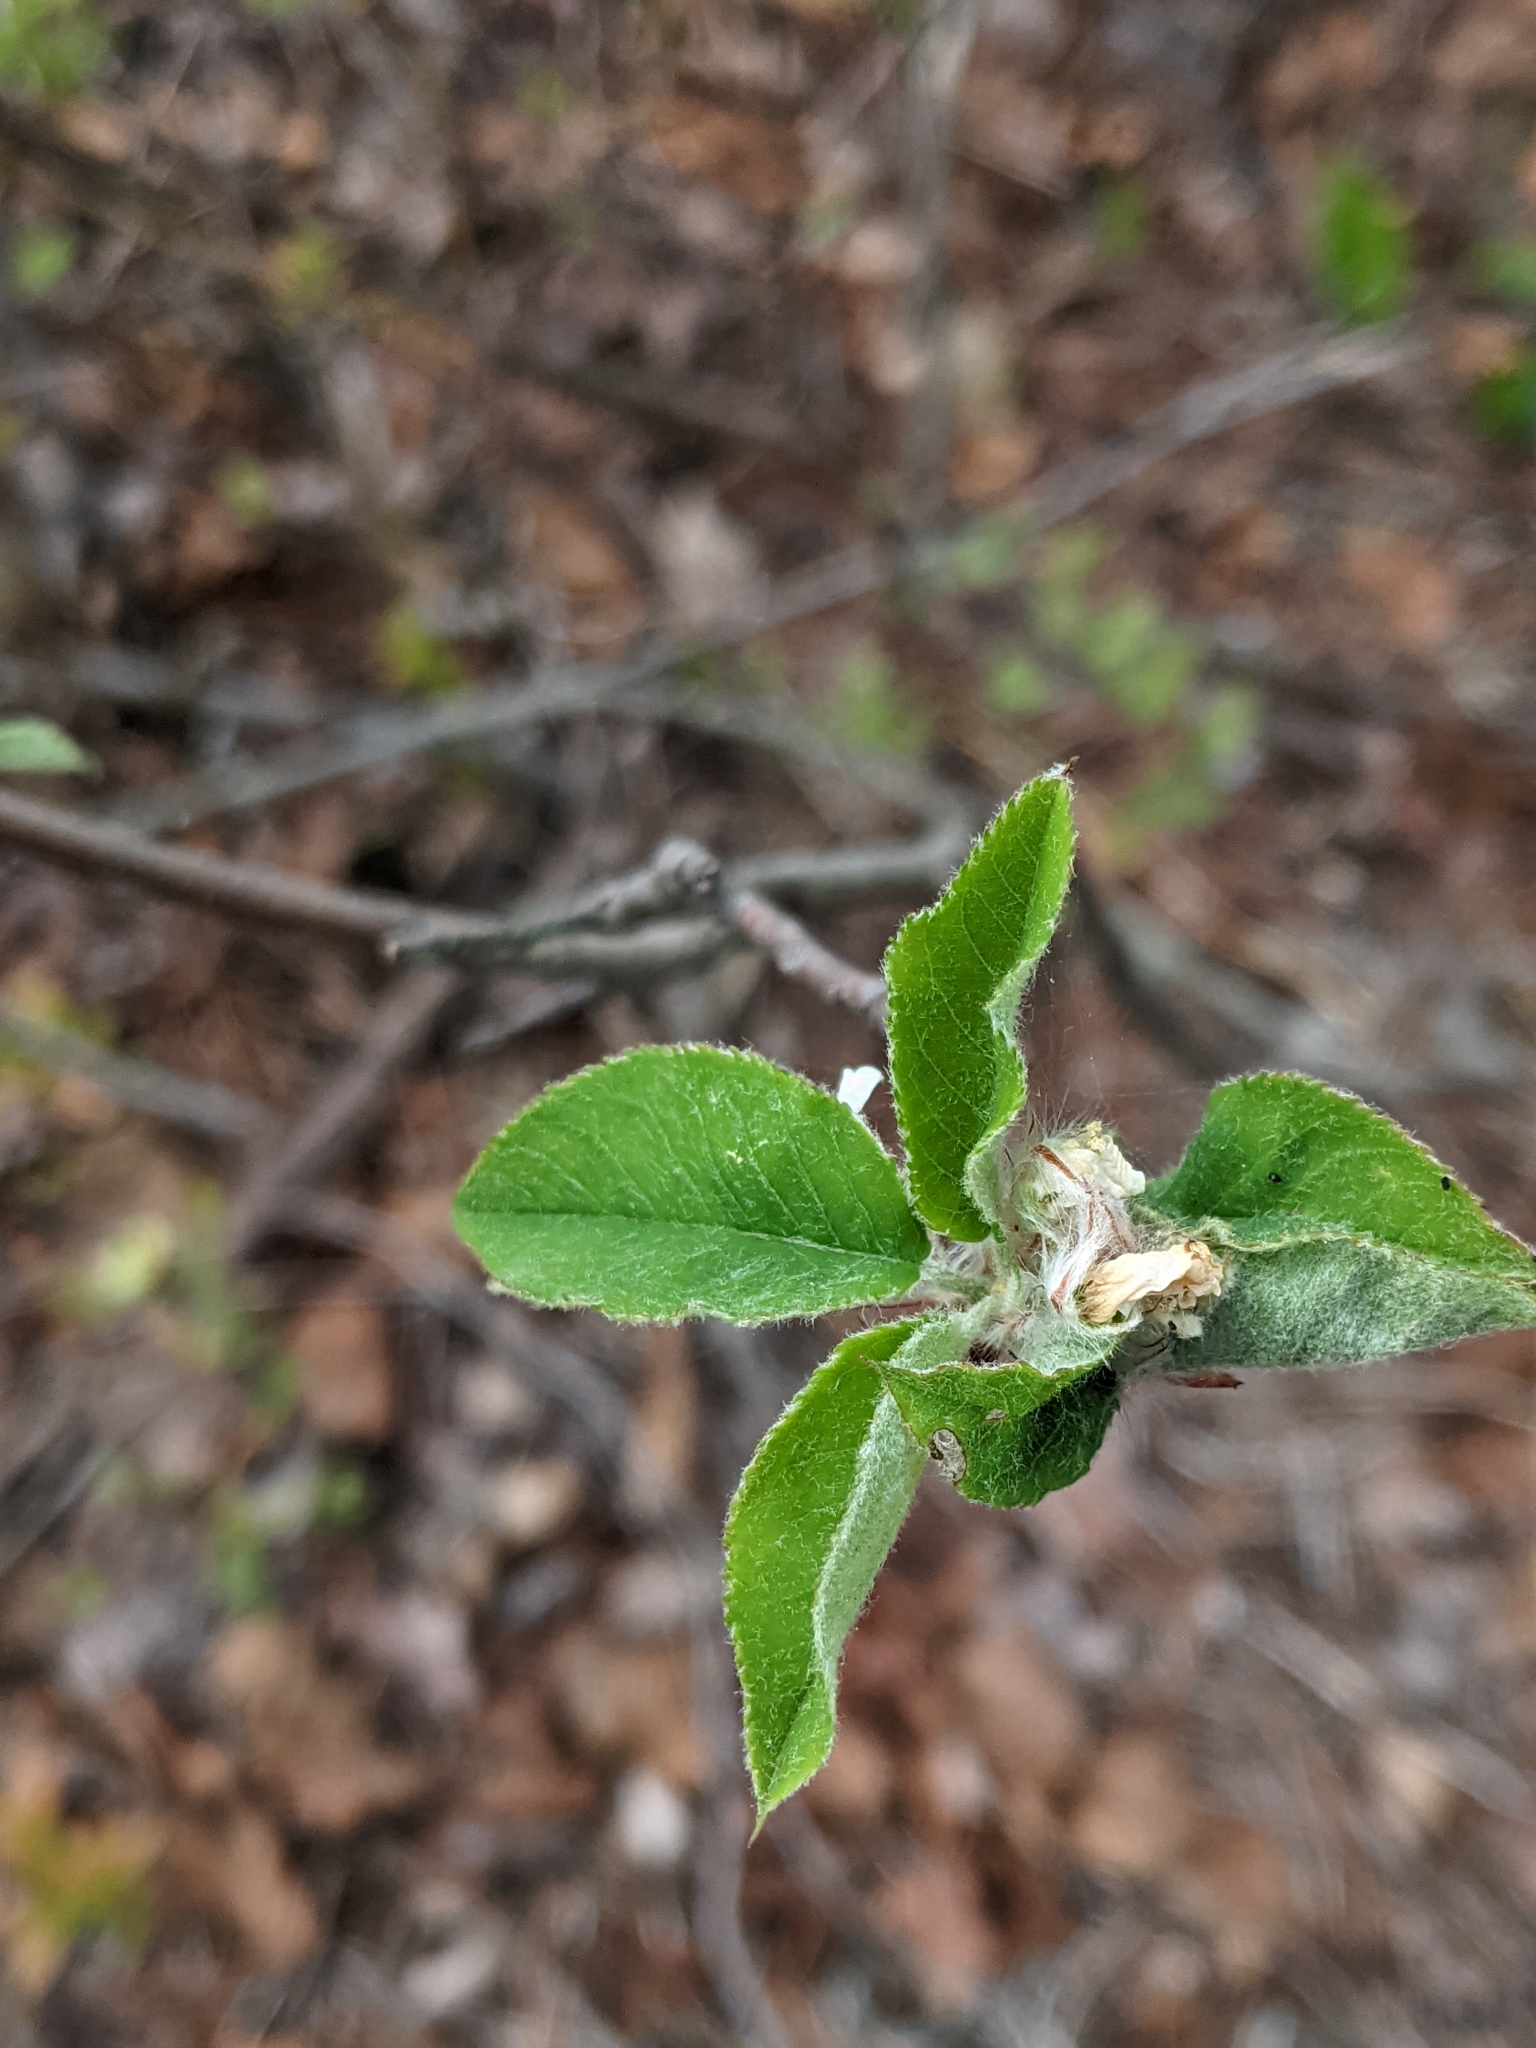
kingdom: Plantae
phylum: Tracheophyta
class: Magnoliopsida
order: Rosales
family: Rosaceae
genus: Amelanchier
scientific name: Amelanchier humilis
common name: Low juneberry
